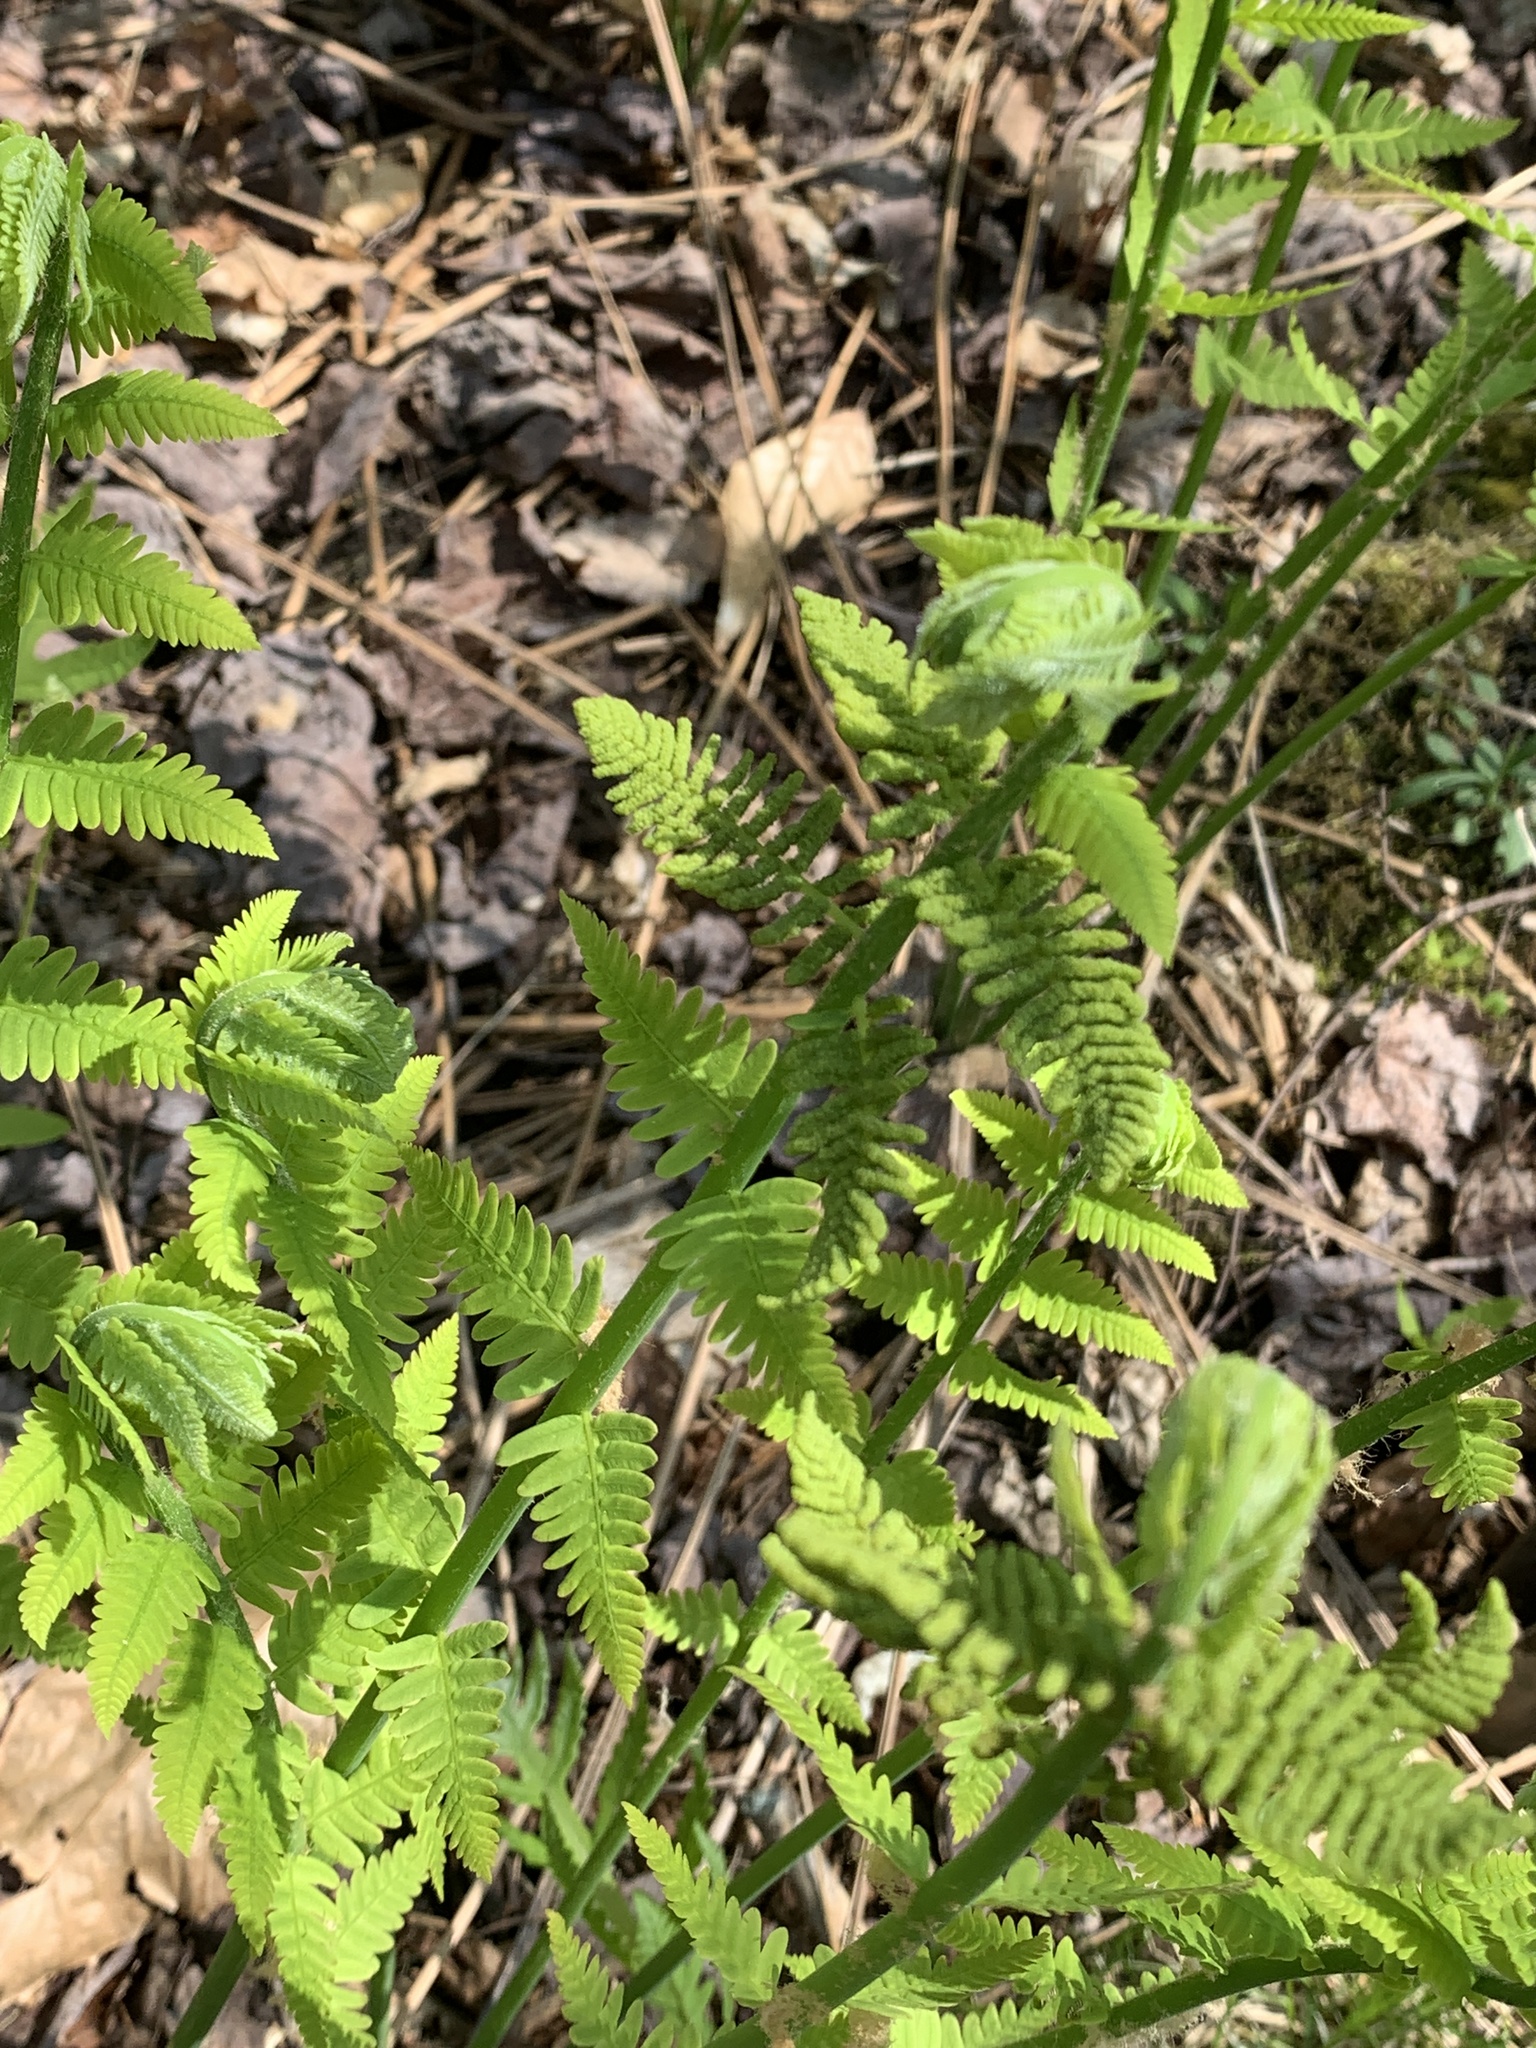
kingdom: Plantae
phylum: Tracheophyta
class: Polypodiopsida
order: Osmundales
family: Osmundaceae
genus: Claytosmunda
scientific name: Claytosmunda claytoniana
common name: Clayton's fern
